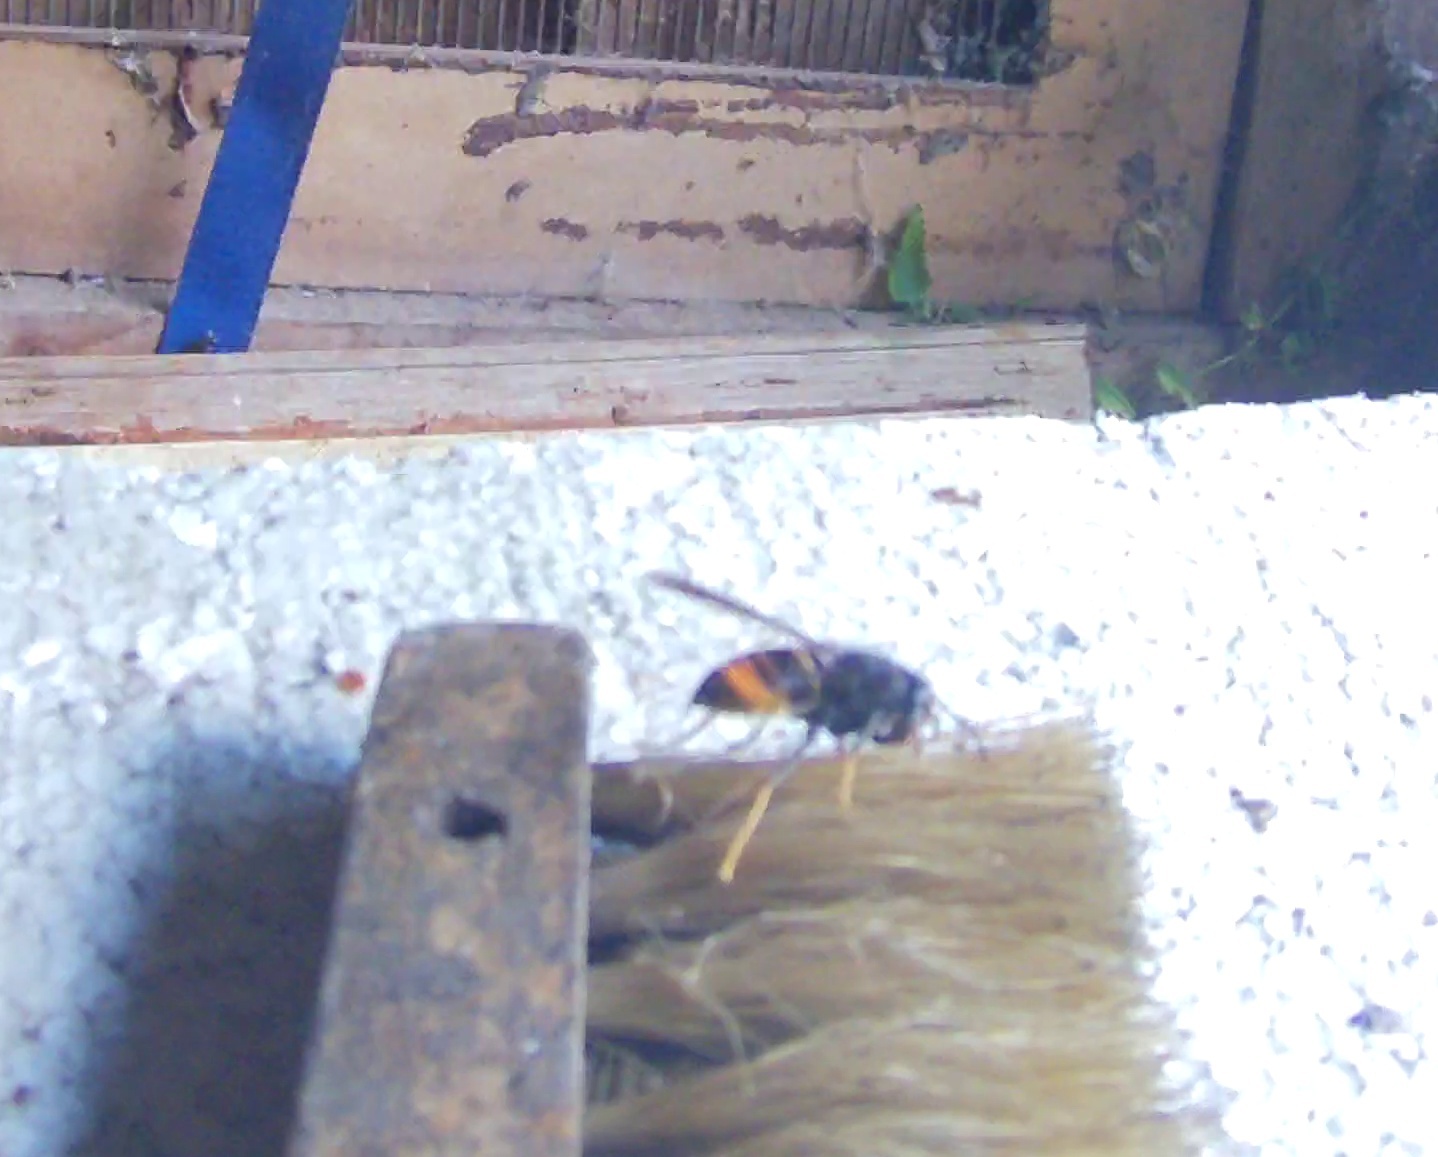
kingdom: Animalia
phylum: Arthropoda
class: Insecta
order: Hymenoptera
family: Vespidae
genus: Vespa
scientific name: Vespa velutina
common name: Asian hornet
